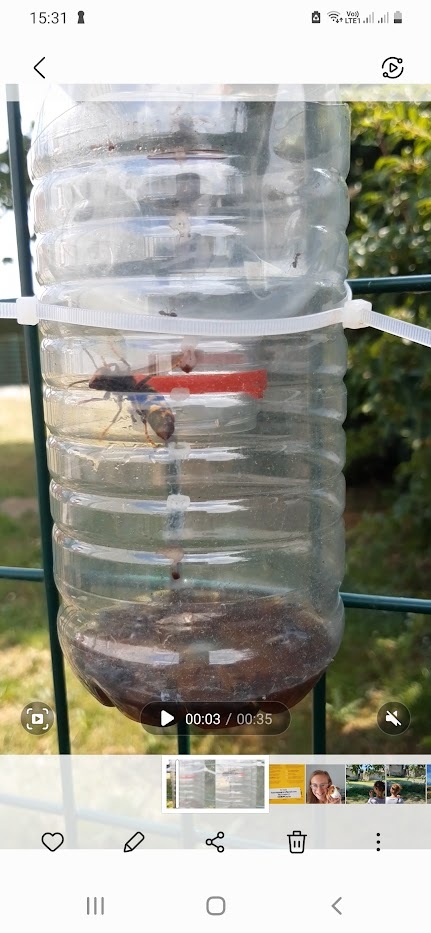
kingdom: Animalia
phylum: Arthropoda
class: Insecta
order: Hymenoptera
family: Vespidae
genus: Vespa
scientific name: Vespa velutina
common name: Asian hornet
